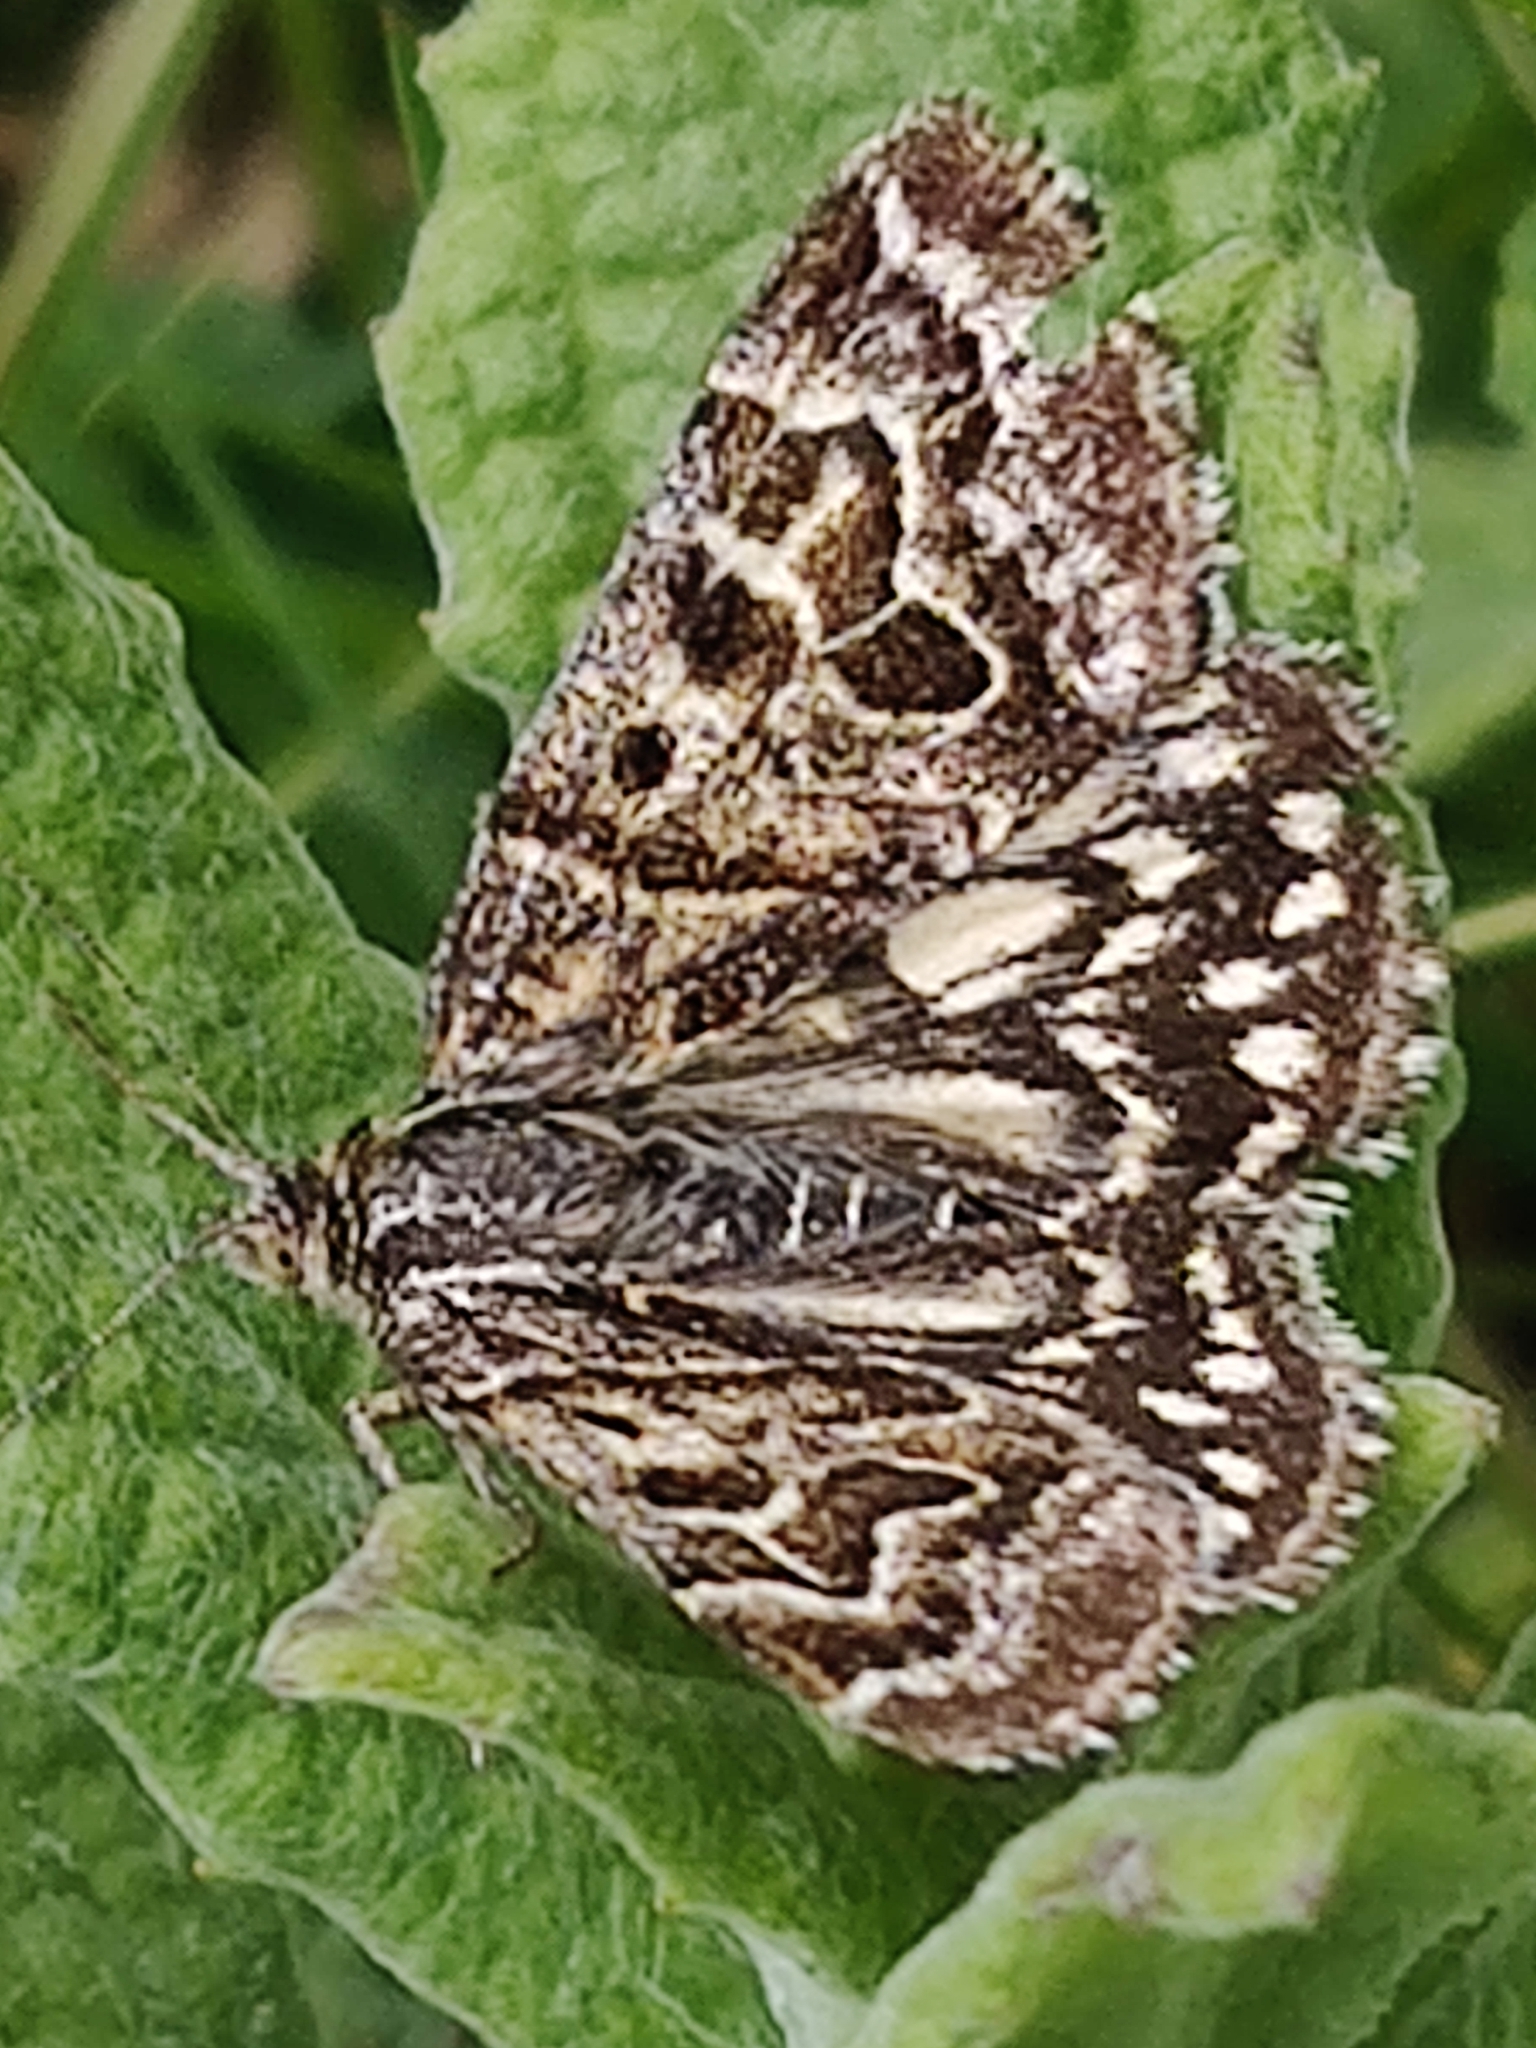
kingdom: Animalia
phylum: Arthropoda
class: Insecta
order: Lepidoptera
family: Erebidae
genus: Callistege
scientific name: Callistege mi
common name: Mother shipton
